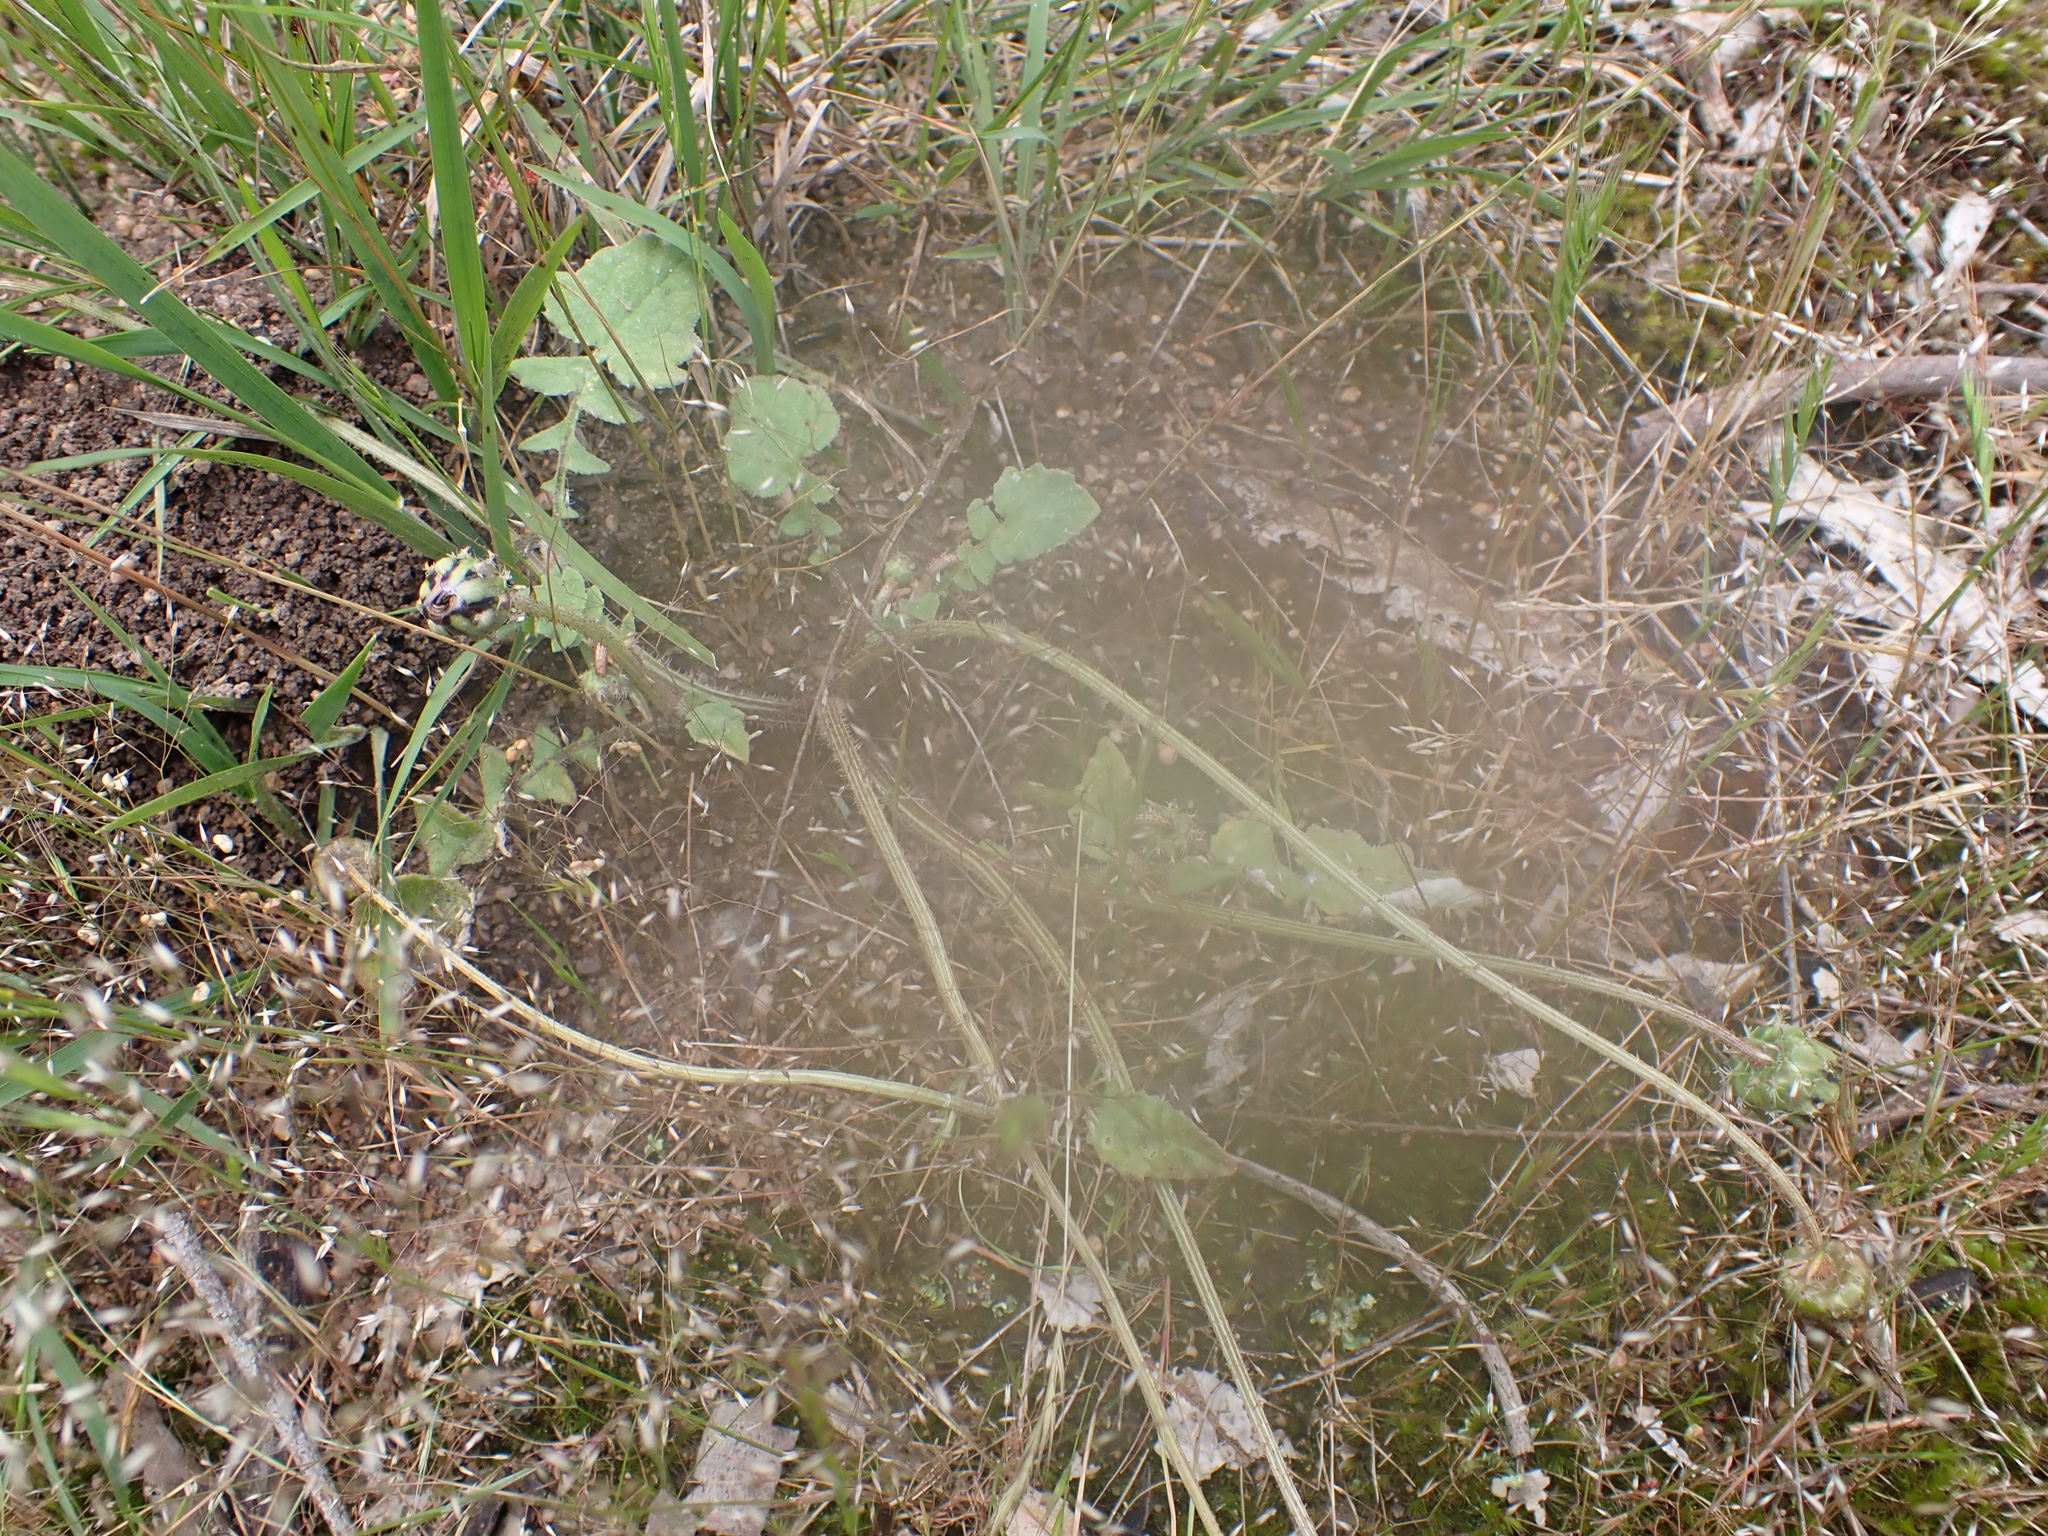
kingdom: Plantae
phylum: Tracheophyta
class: Magnoliopsida
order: Asterales
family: Asteraceae
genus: Arctotheca
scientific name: Arctotheca calendula
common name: Capeweed
